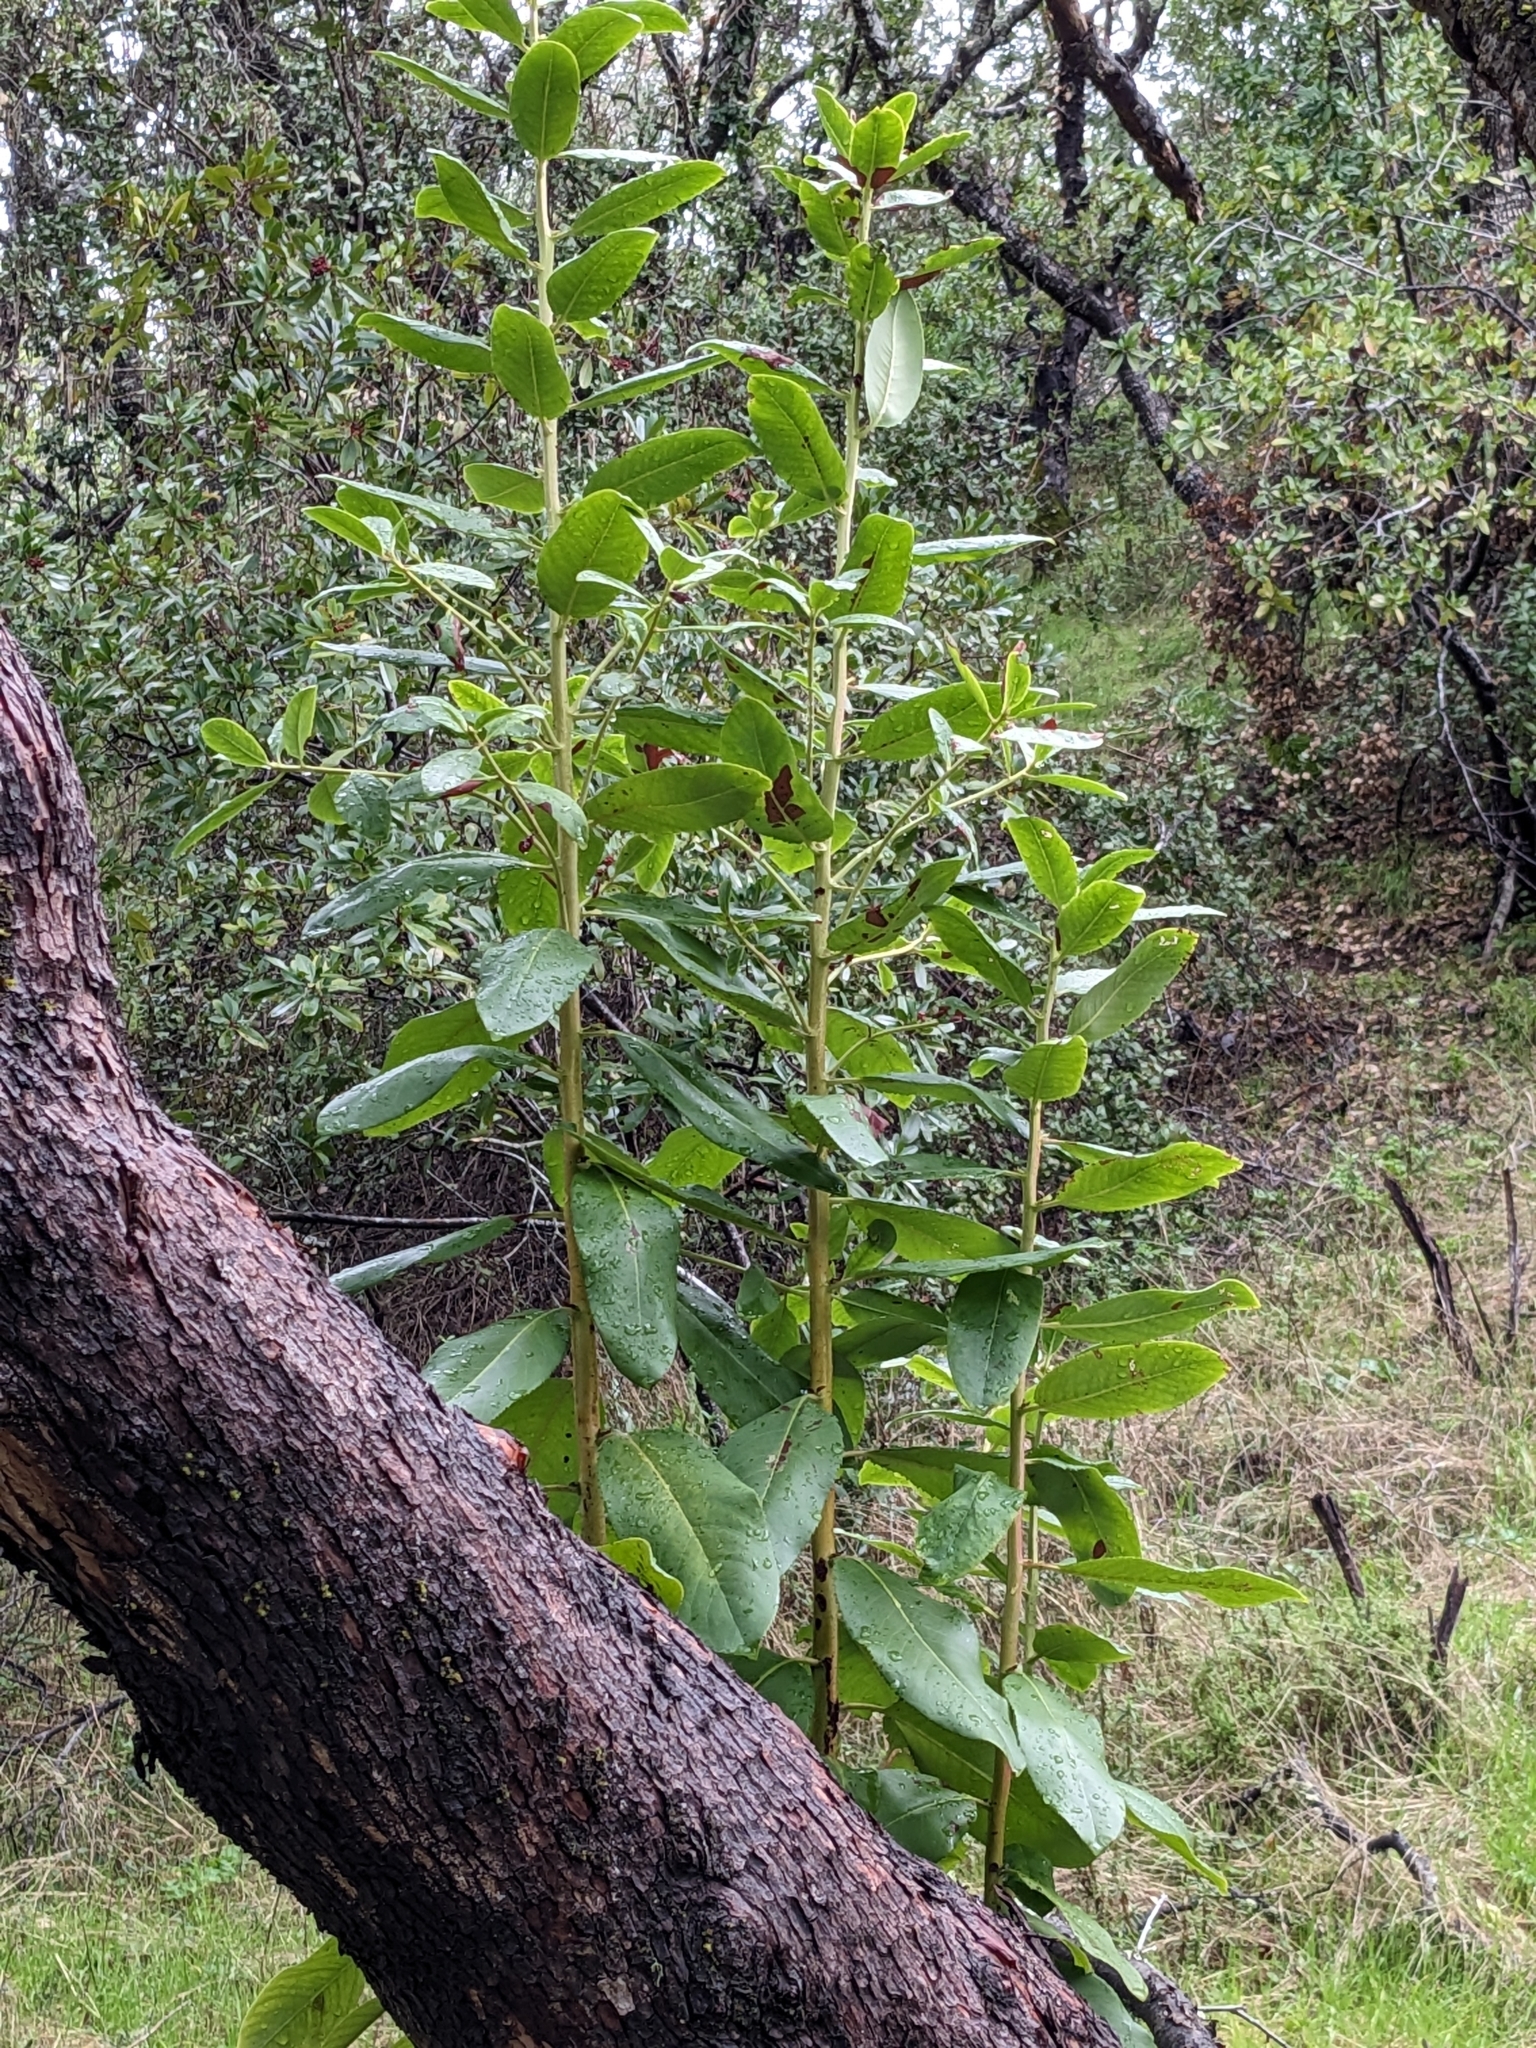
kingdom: Plantae
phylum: Tracheophyta
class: Magnoliopsida
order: Ericales
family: Ericaceae
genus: Arbutus
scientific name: Arbutus menziesii
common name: Pacific madrone
